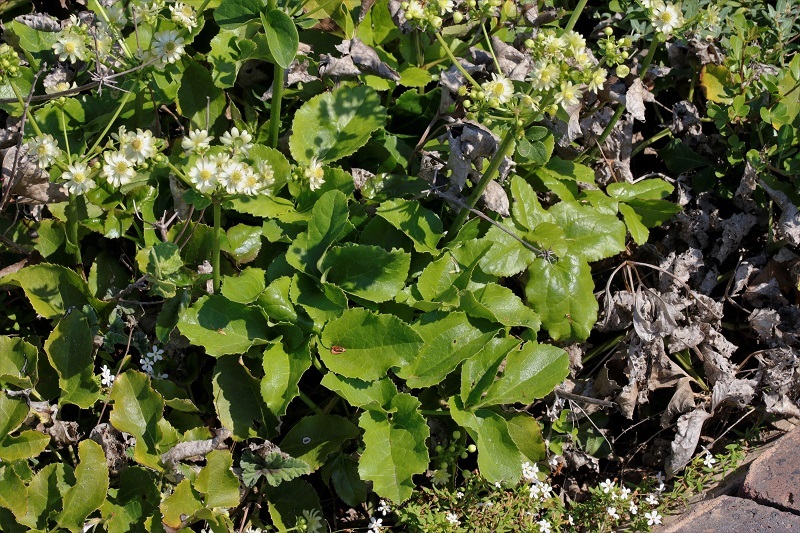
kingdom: Plantae
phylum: Tracheophyta
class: Magnoliopsida
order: Ranunculales
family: Ranunculaceae
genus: Knowltonia
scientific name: Knowltonia vesicatoria
